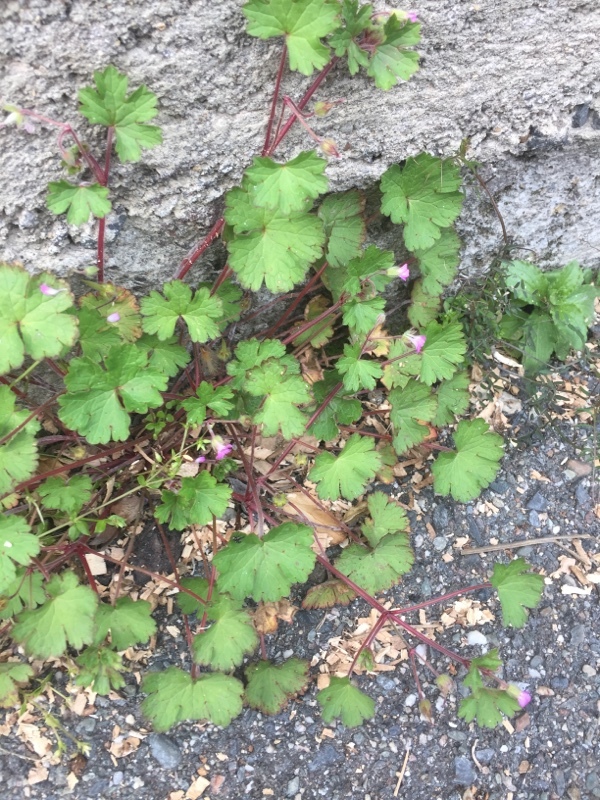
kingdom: Plantae
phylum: Tracheophyta
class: Magnoliopsida
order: Geraniales
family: Geraniaceae
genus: Geranium
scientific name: Geranium rotundifolium
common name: Round-leaved crane's-bill
